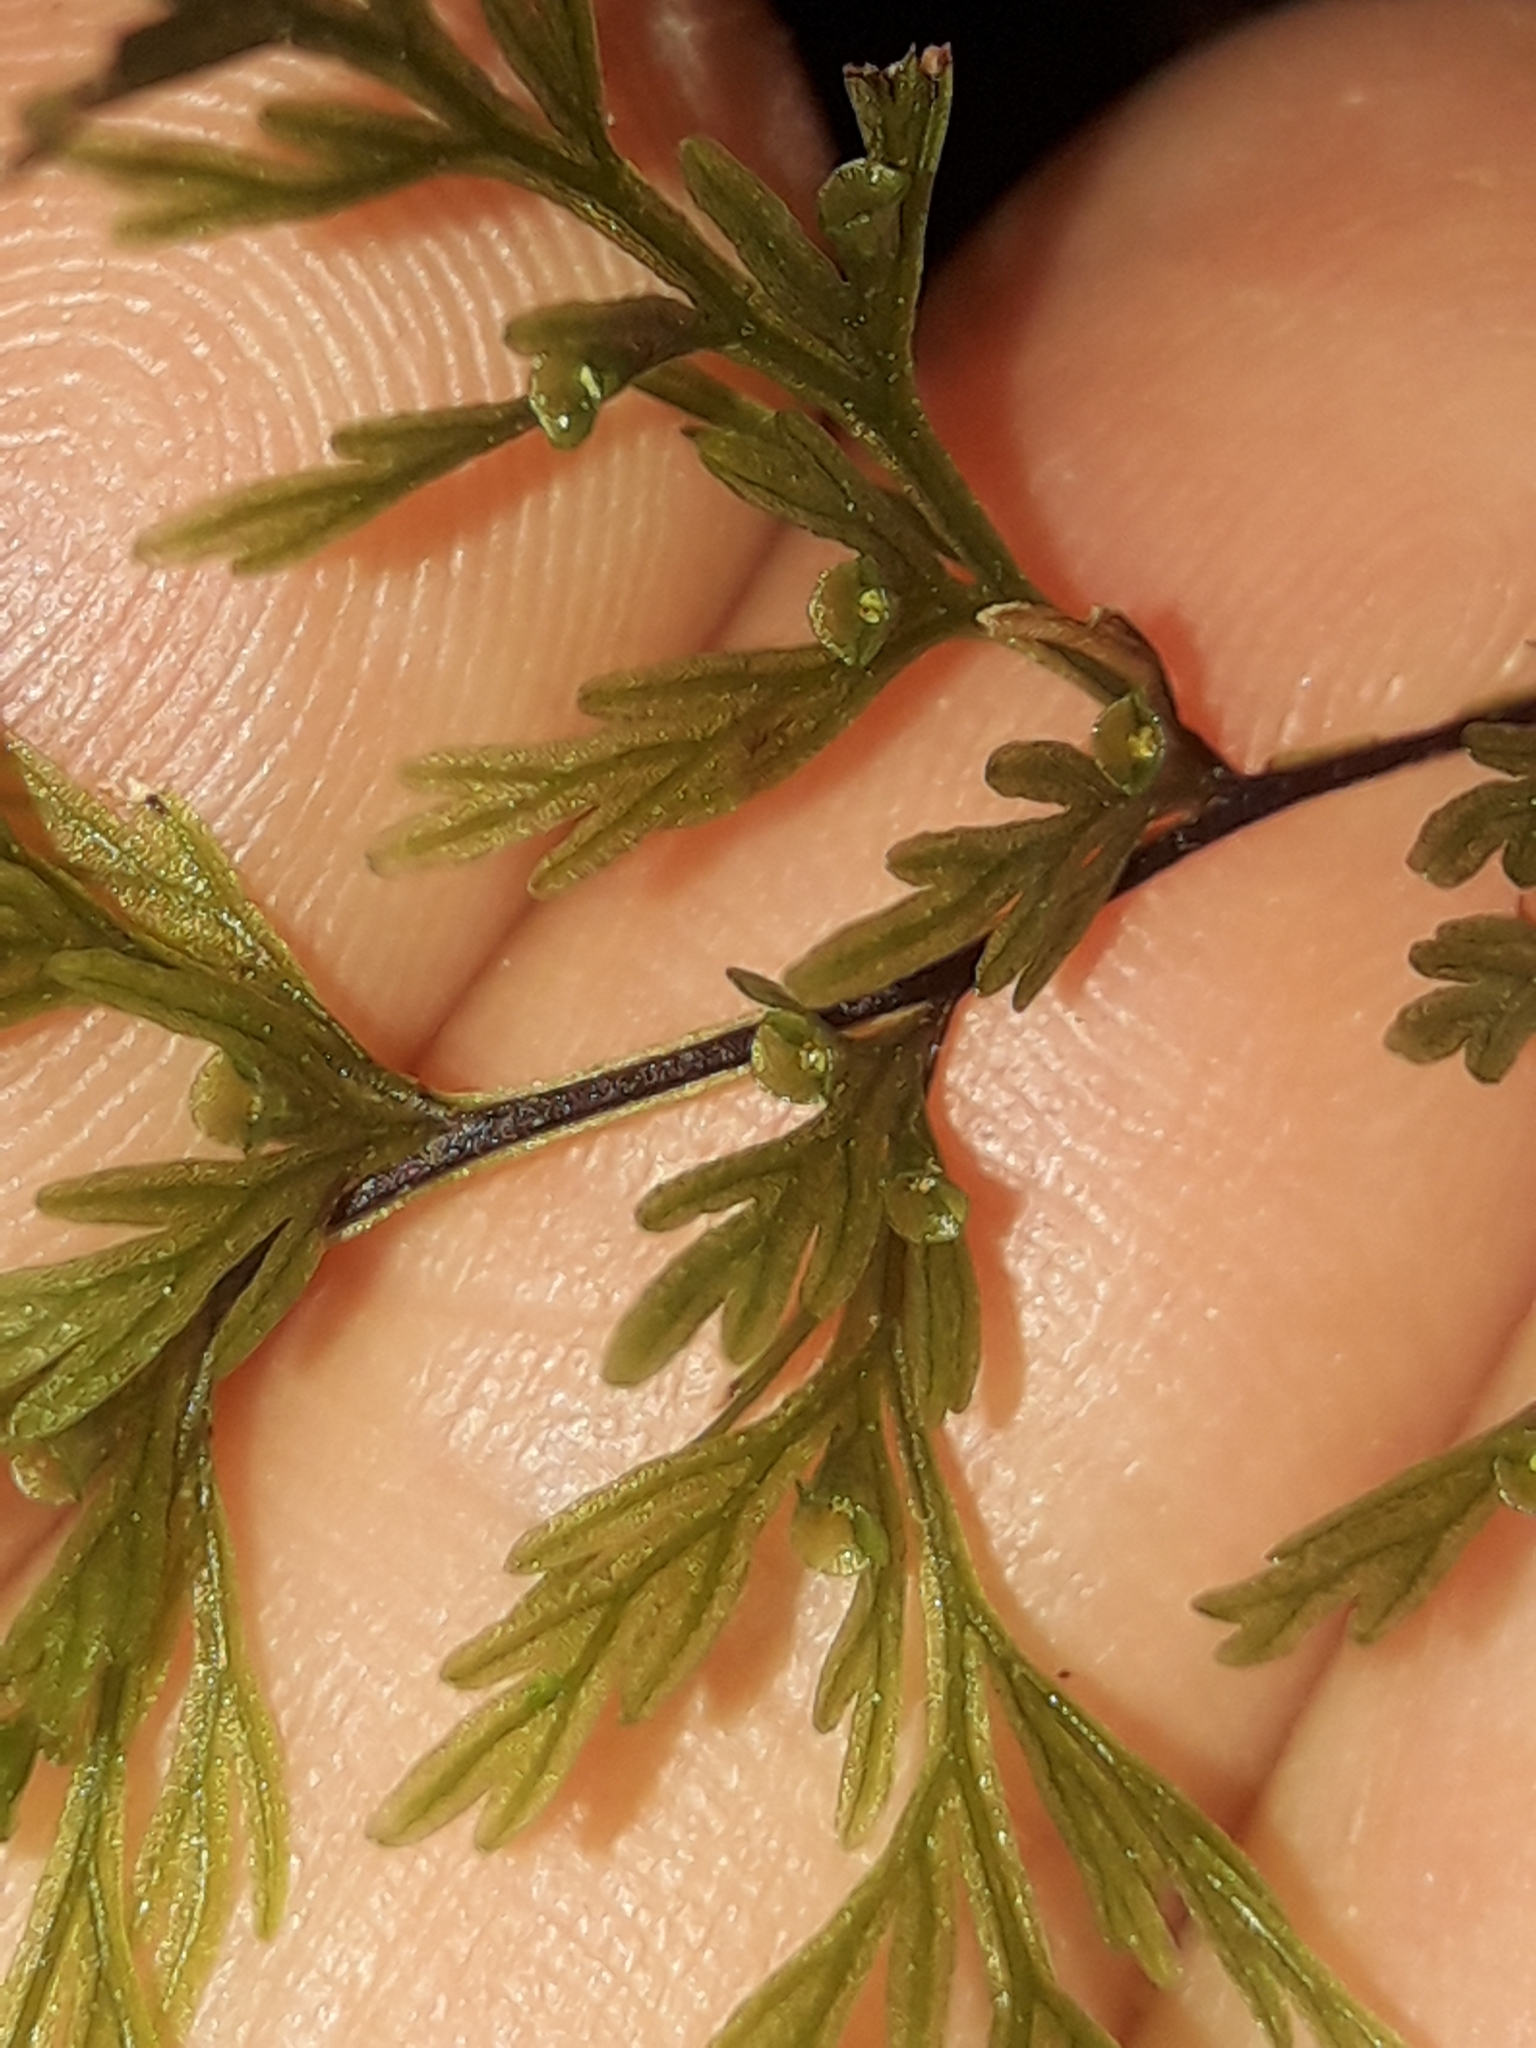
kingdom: Plantae
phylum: Tracheophyta
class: Polypodiopsida
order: Hymenophyllales
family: Hymenophyllaceae
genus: Abrodictyum
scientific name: Abrodictyum caudatum
